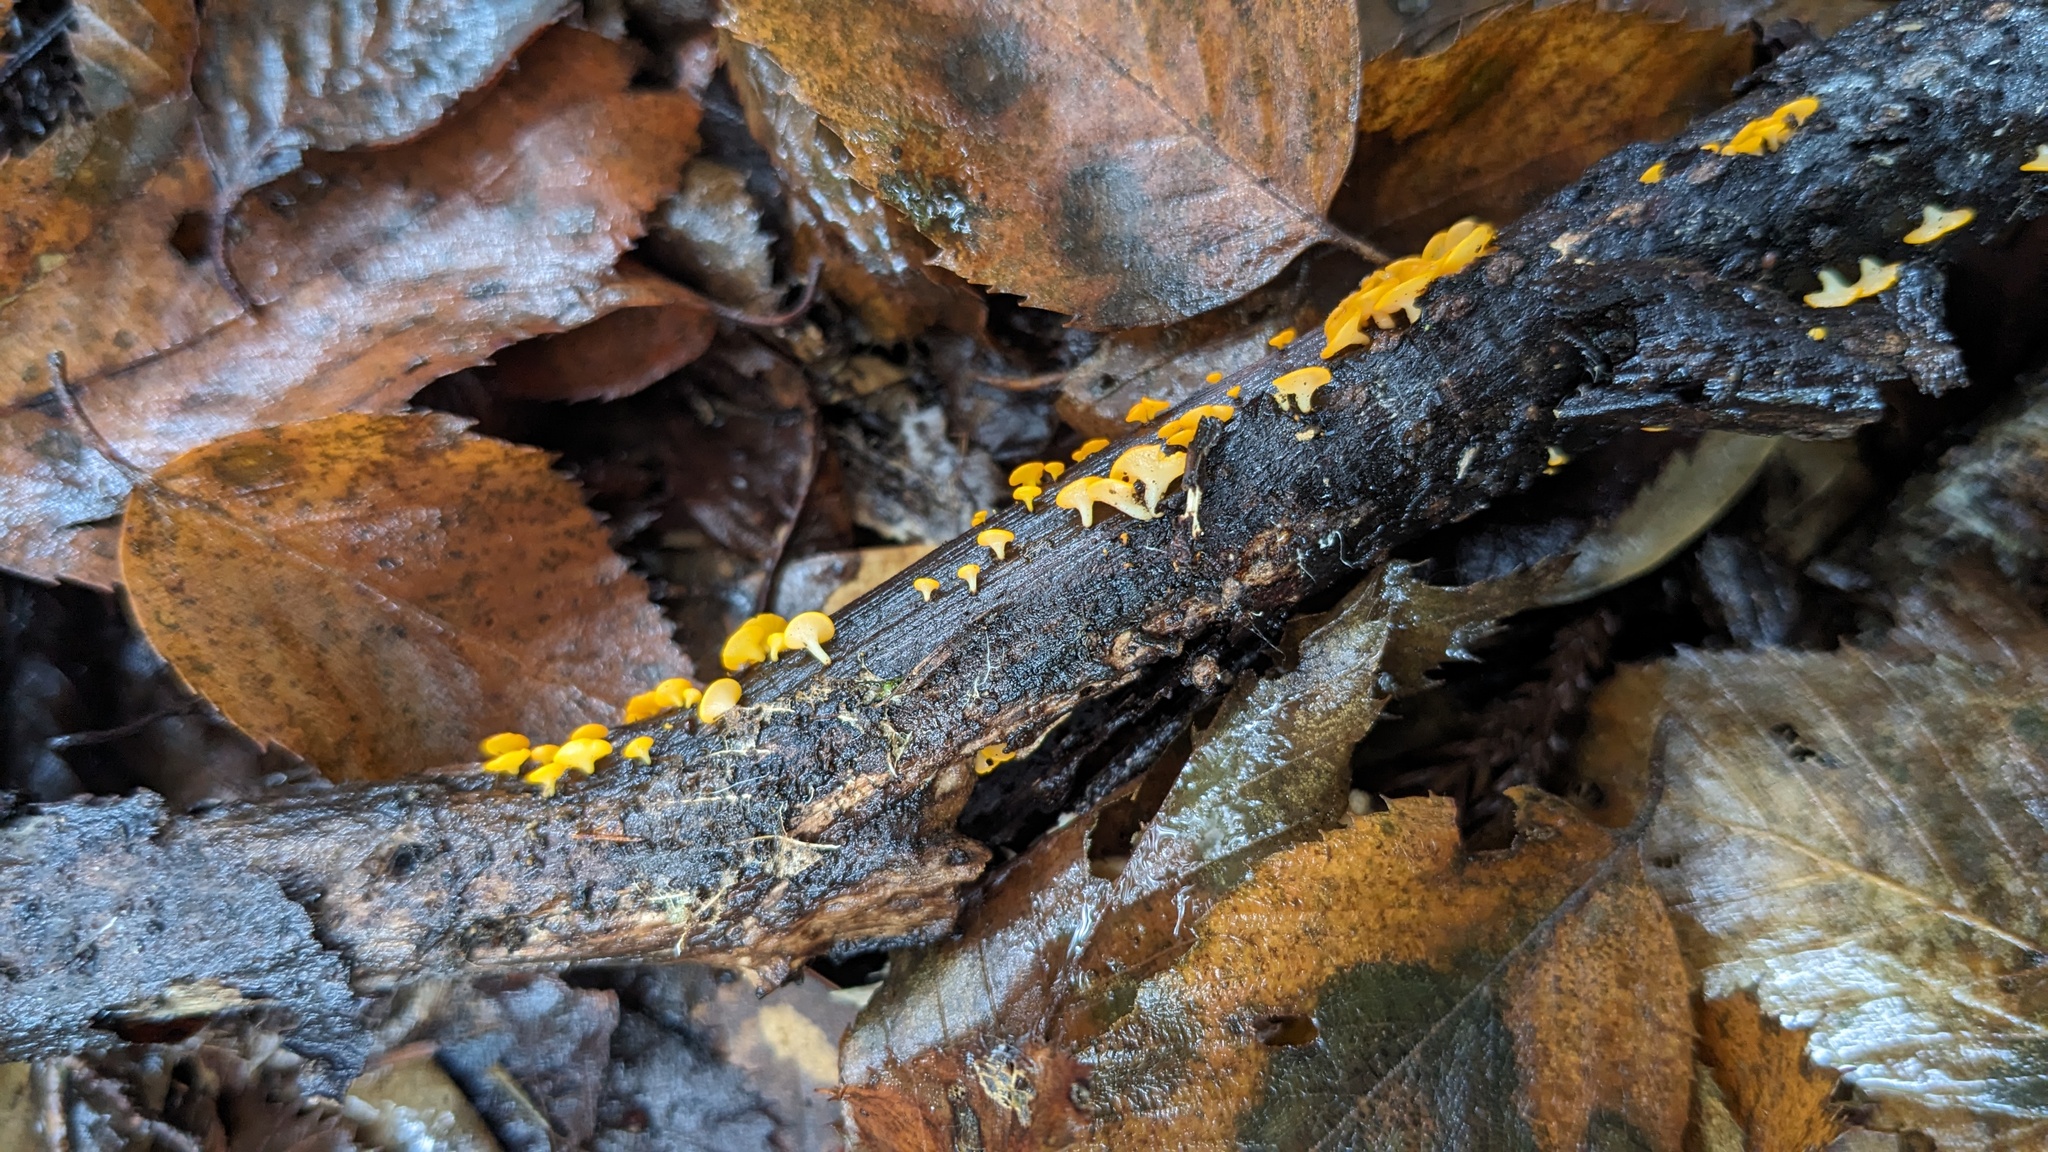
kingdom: Fungi
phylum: Ascomycota
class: Leotiomycetes
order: Helotiales
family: Helotiaceae
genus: Dicephalospora
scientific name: Dicephalospora rufocornea
